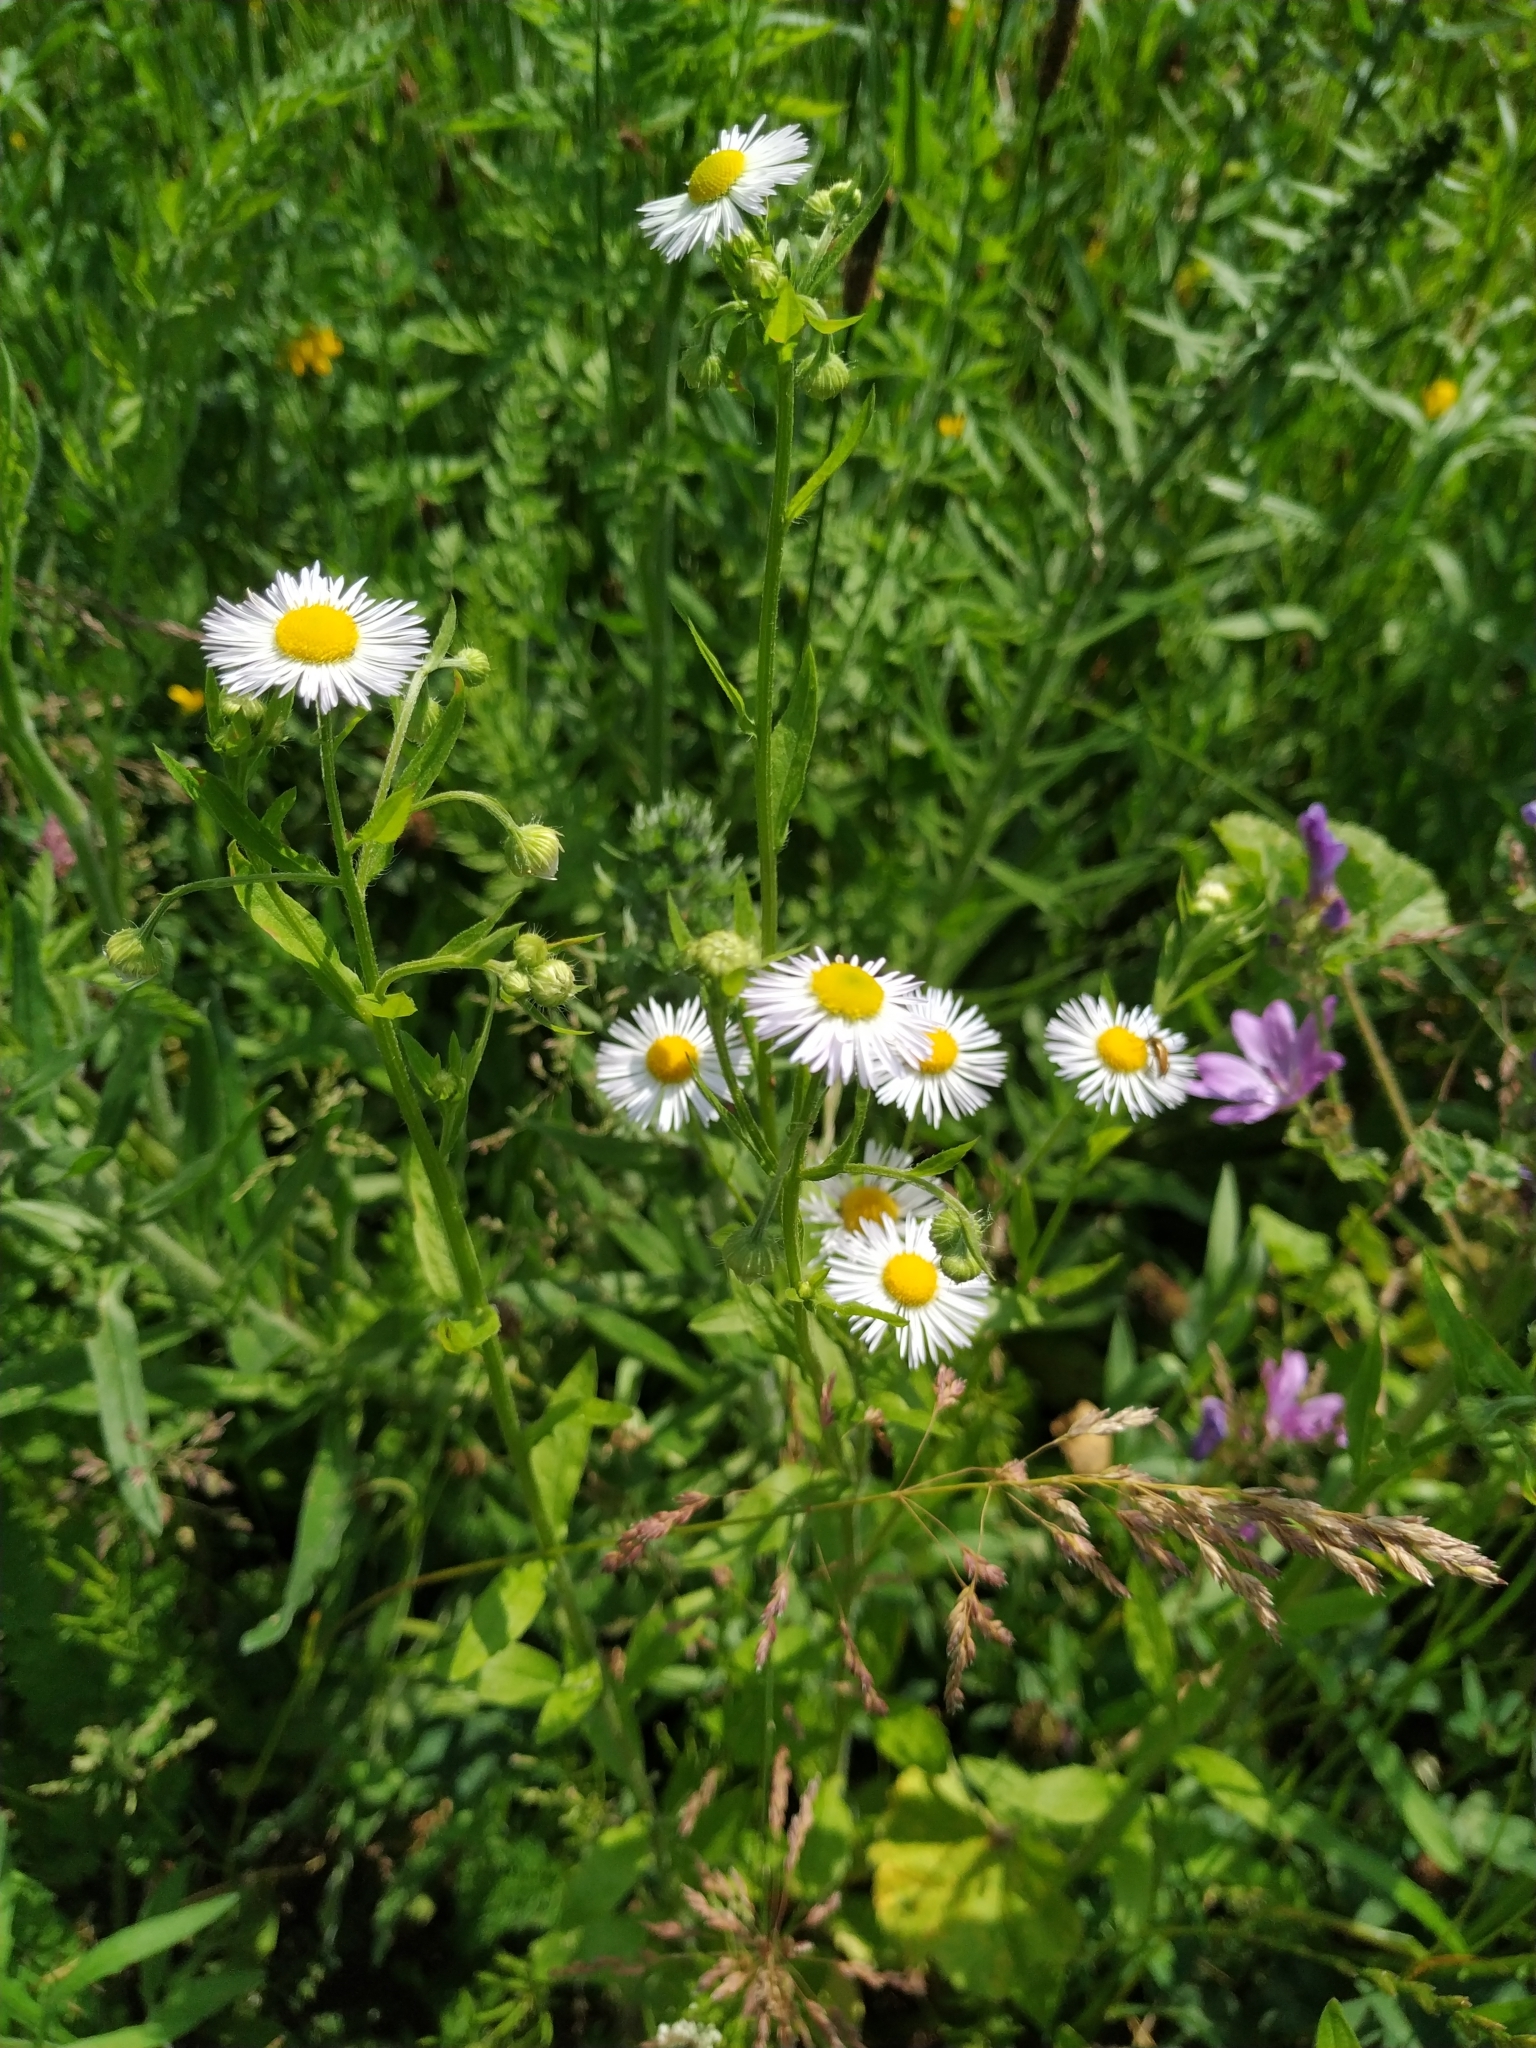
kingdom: Plantae
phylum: Tracheophyta
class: Magnoliopsida
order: Asterales
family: Asteraceae
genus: Erigeron
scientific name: Erigeron annuus
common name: Tall fleabane
